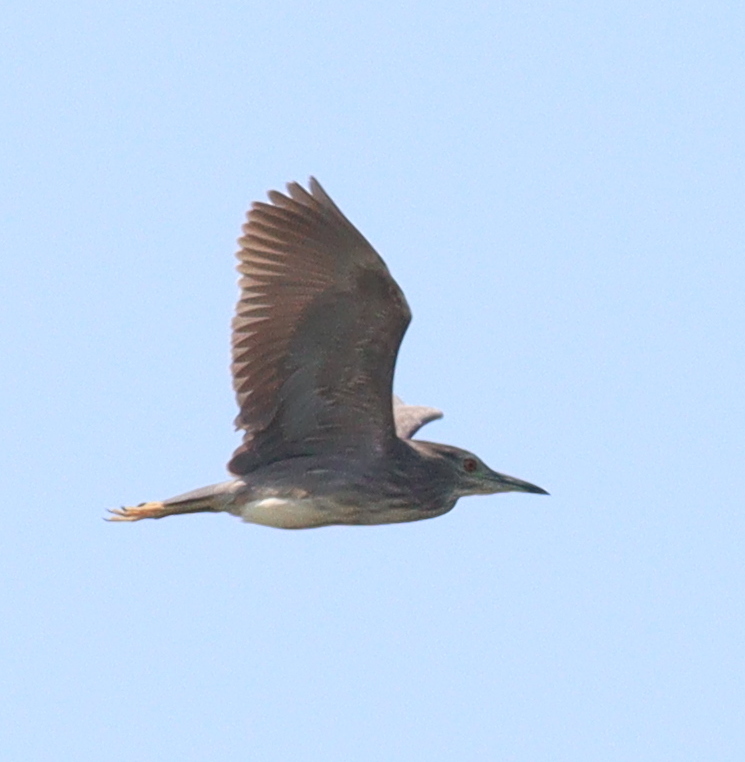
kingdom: Animalia
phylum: Chordata
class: Aves
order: Pelecaniformes
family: Ardeidae
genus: Nycticorax
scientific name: Nycticorax nycticorax
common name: Black-crowned night heron
